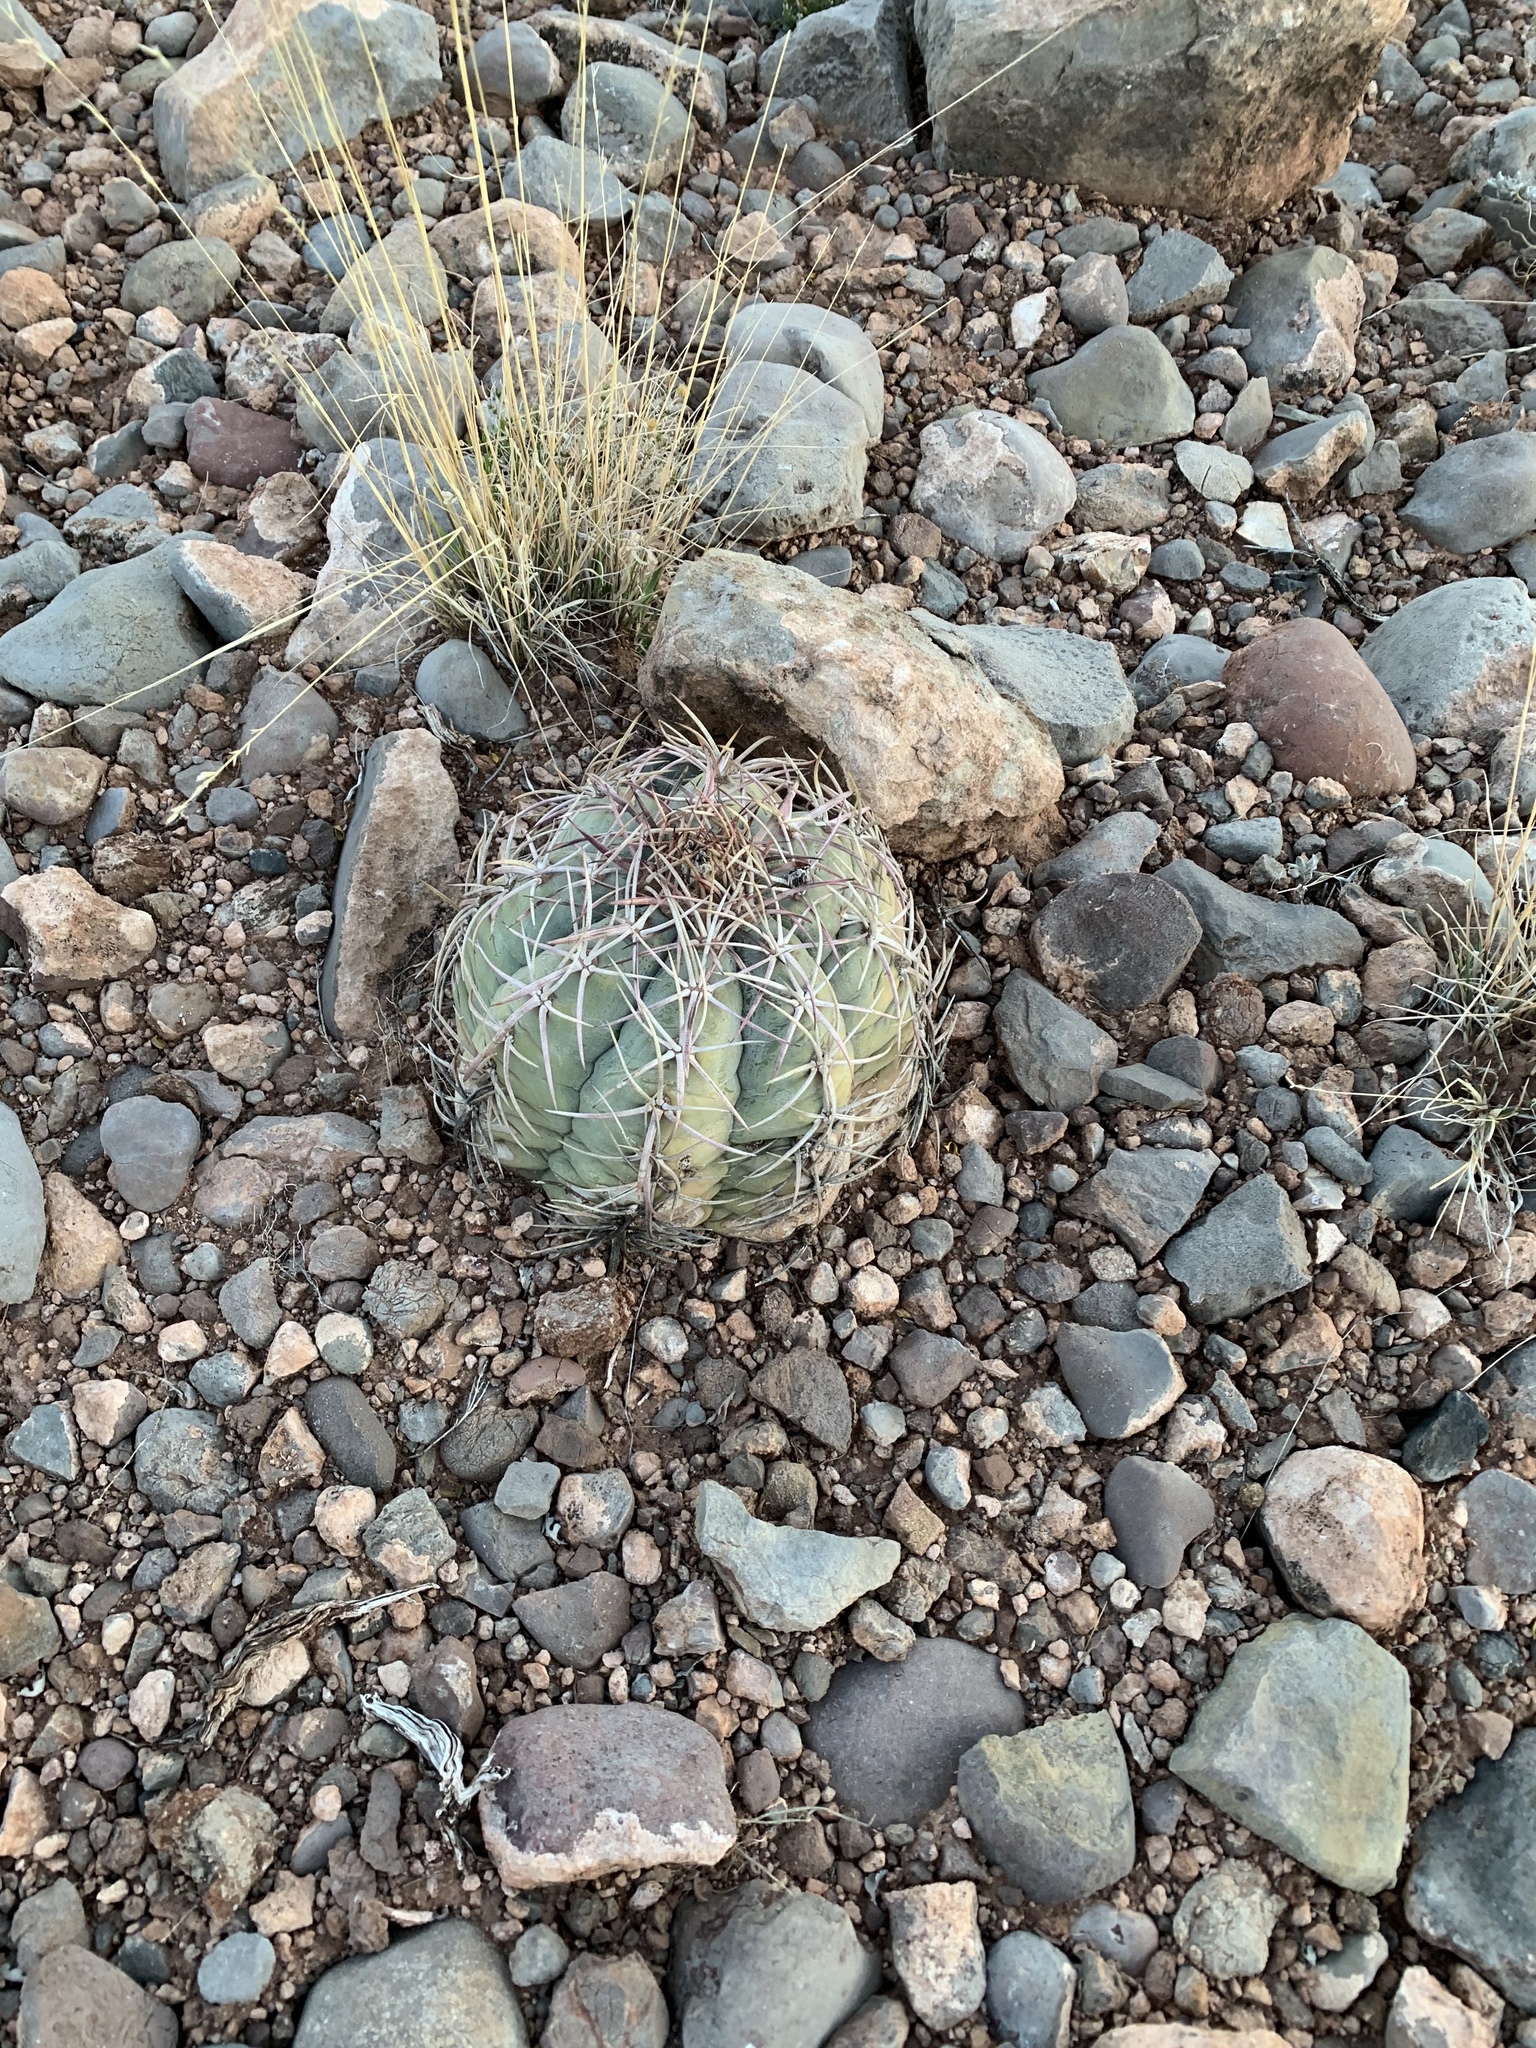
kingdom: Plantae
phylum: Tracheophyta
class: Magnoliopsida
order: Caryophyllales
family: Cactaceae
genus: Echinocactus
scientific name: Echinocactus horizonthalonius
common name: Devilshead
